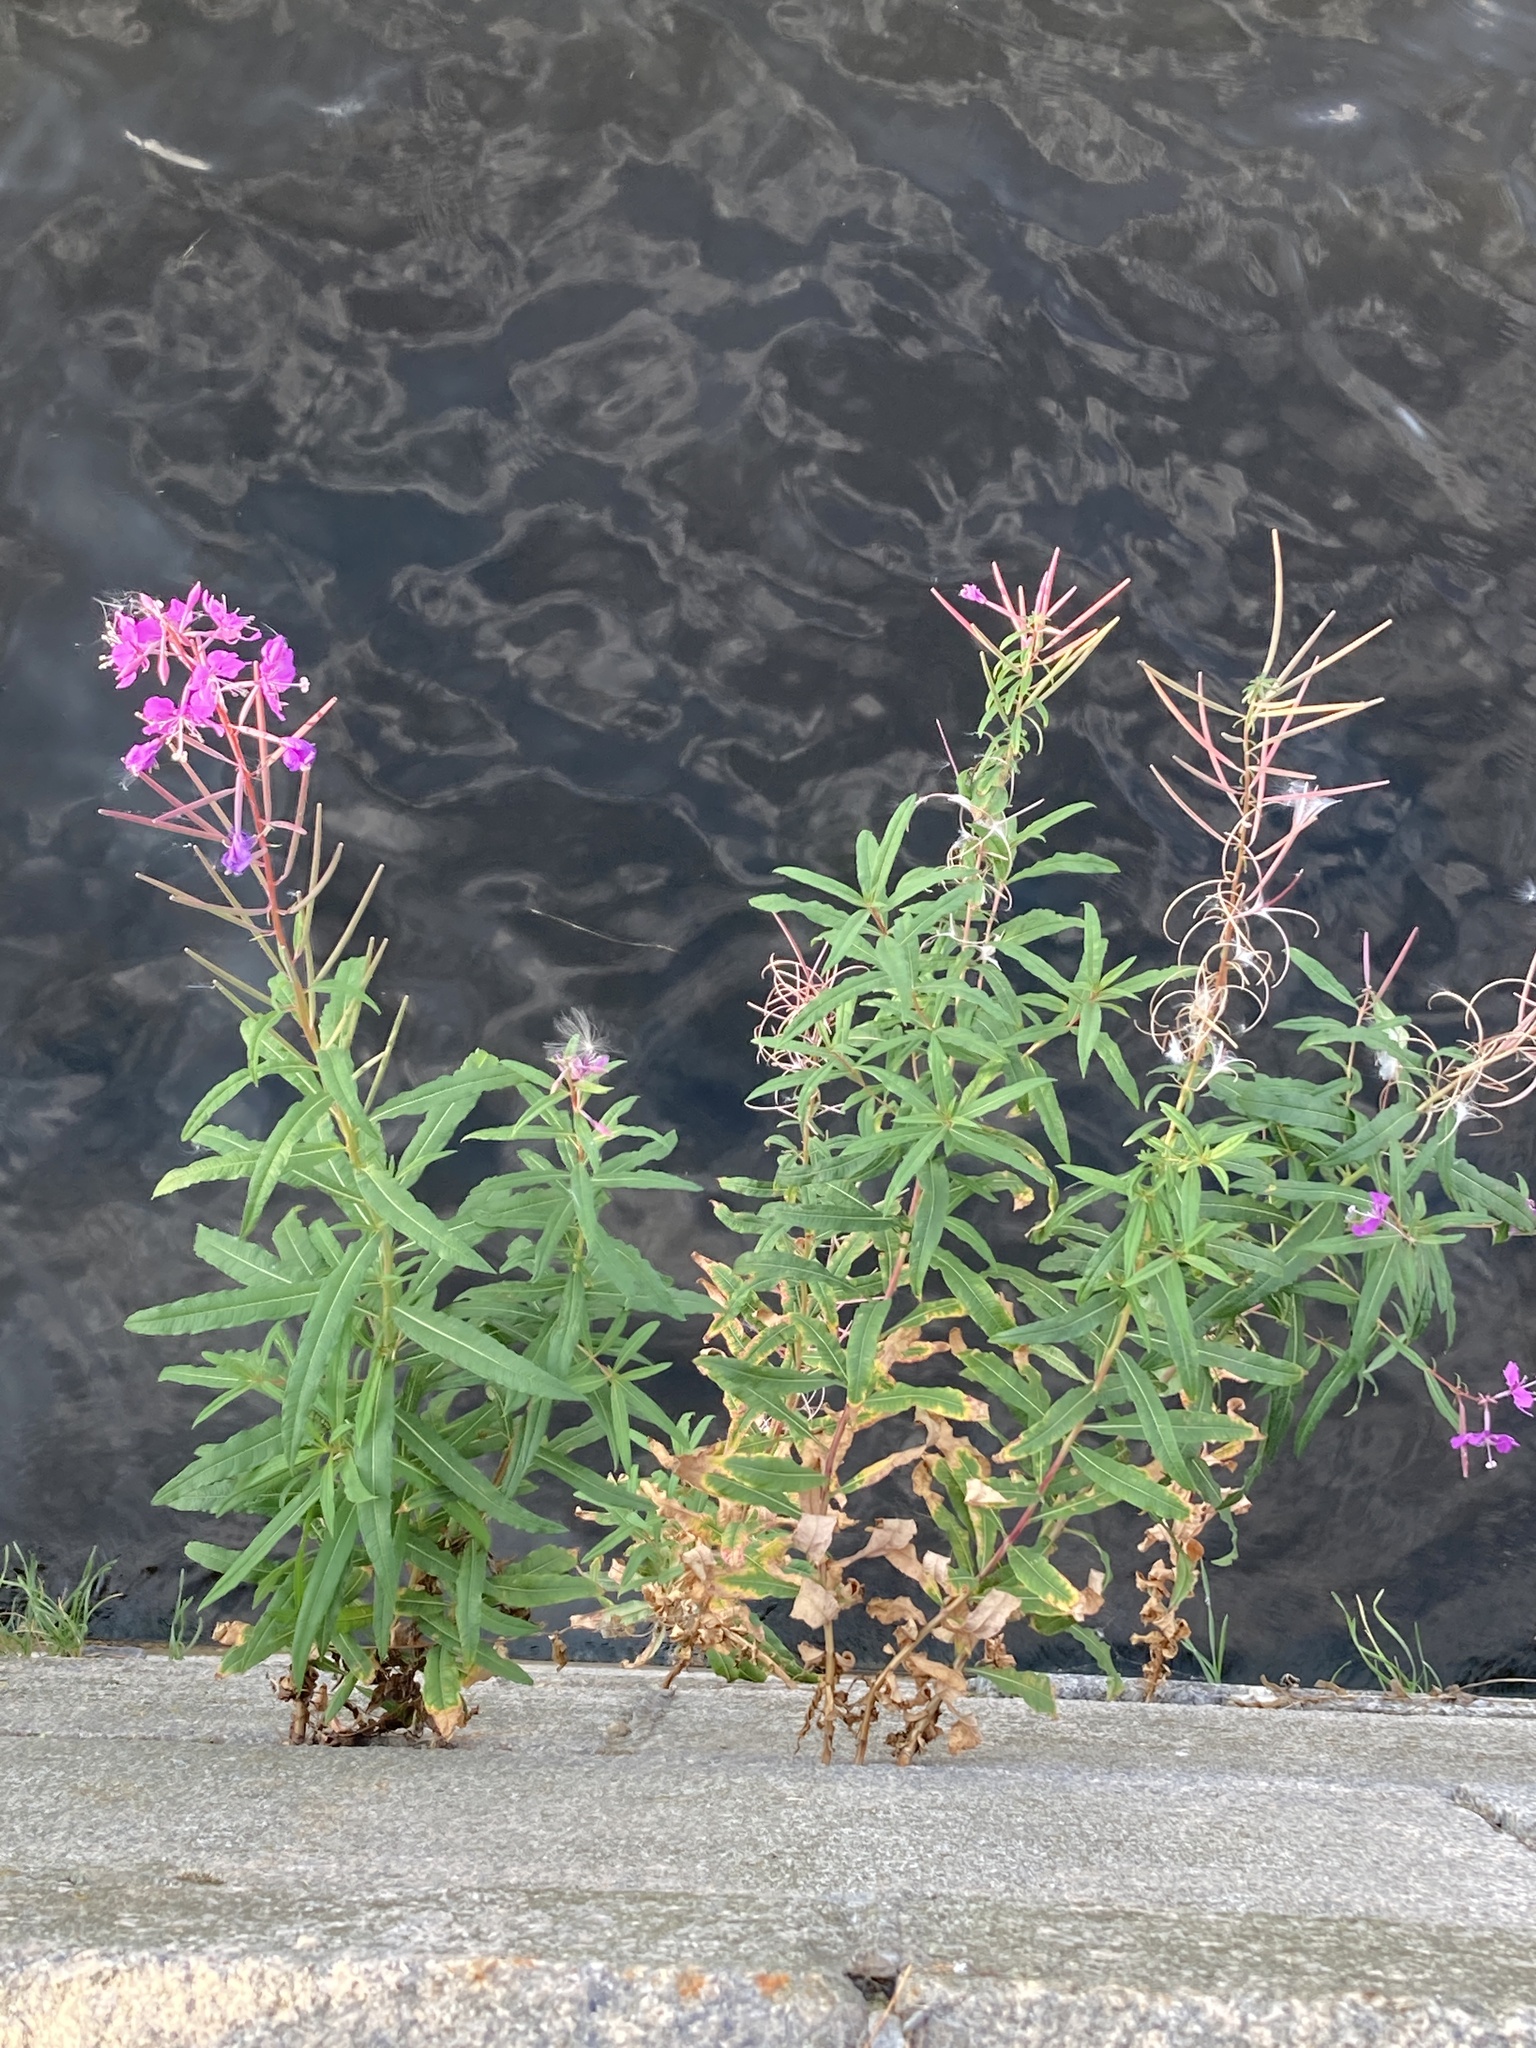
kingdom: Plantae
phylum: Tracheophyta
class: Magnoliopsida
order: Myrtales
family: Onagraceae
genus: Chamaenerion
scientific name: Chamaenerion angustifolium
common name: Fireweed
